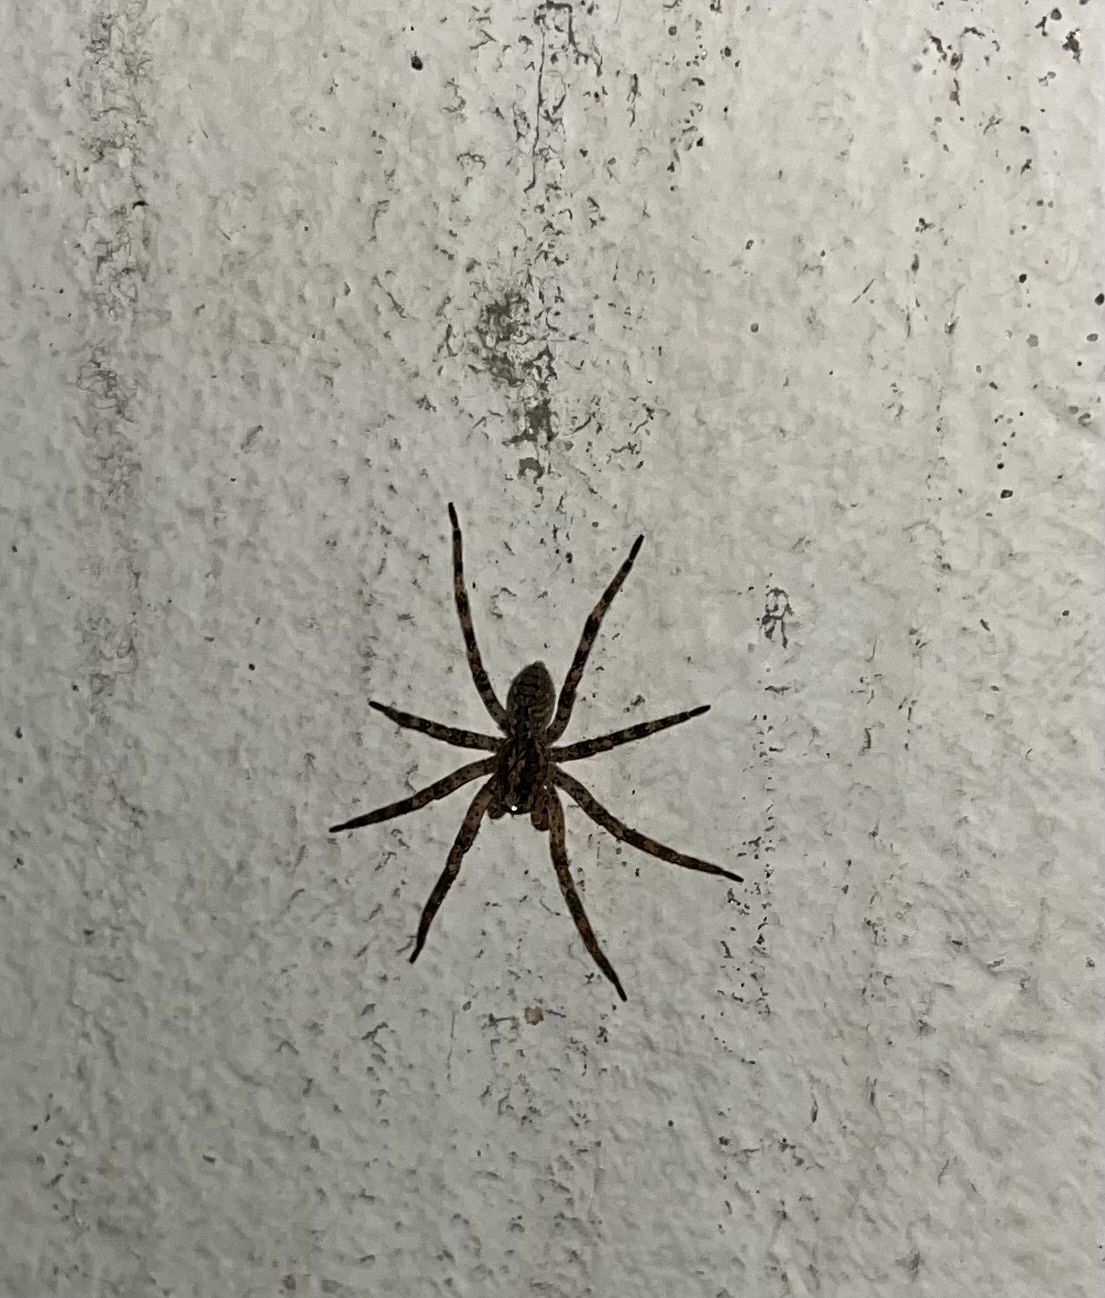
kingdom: Animalia
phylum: Arthropoda
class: Arachnida
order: Araneae
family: Zoropsidae
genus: Zoropsis
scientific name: Zoropsis spinimana
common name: Zoropsid spider
